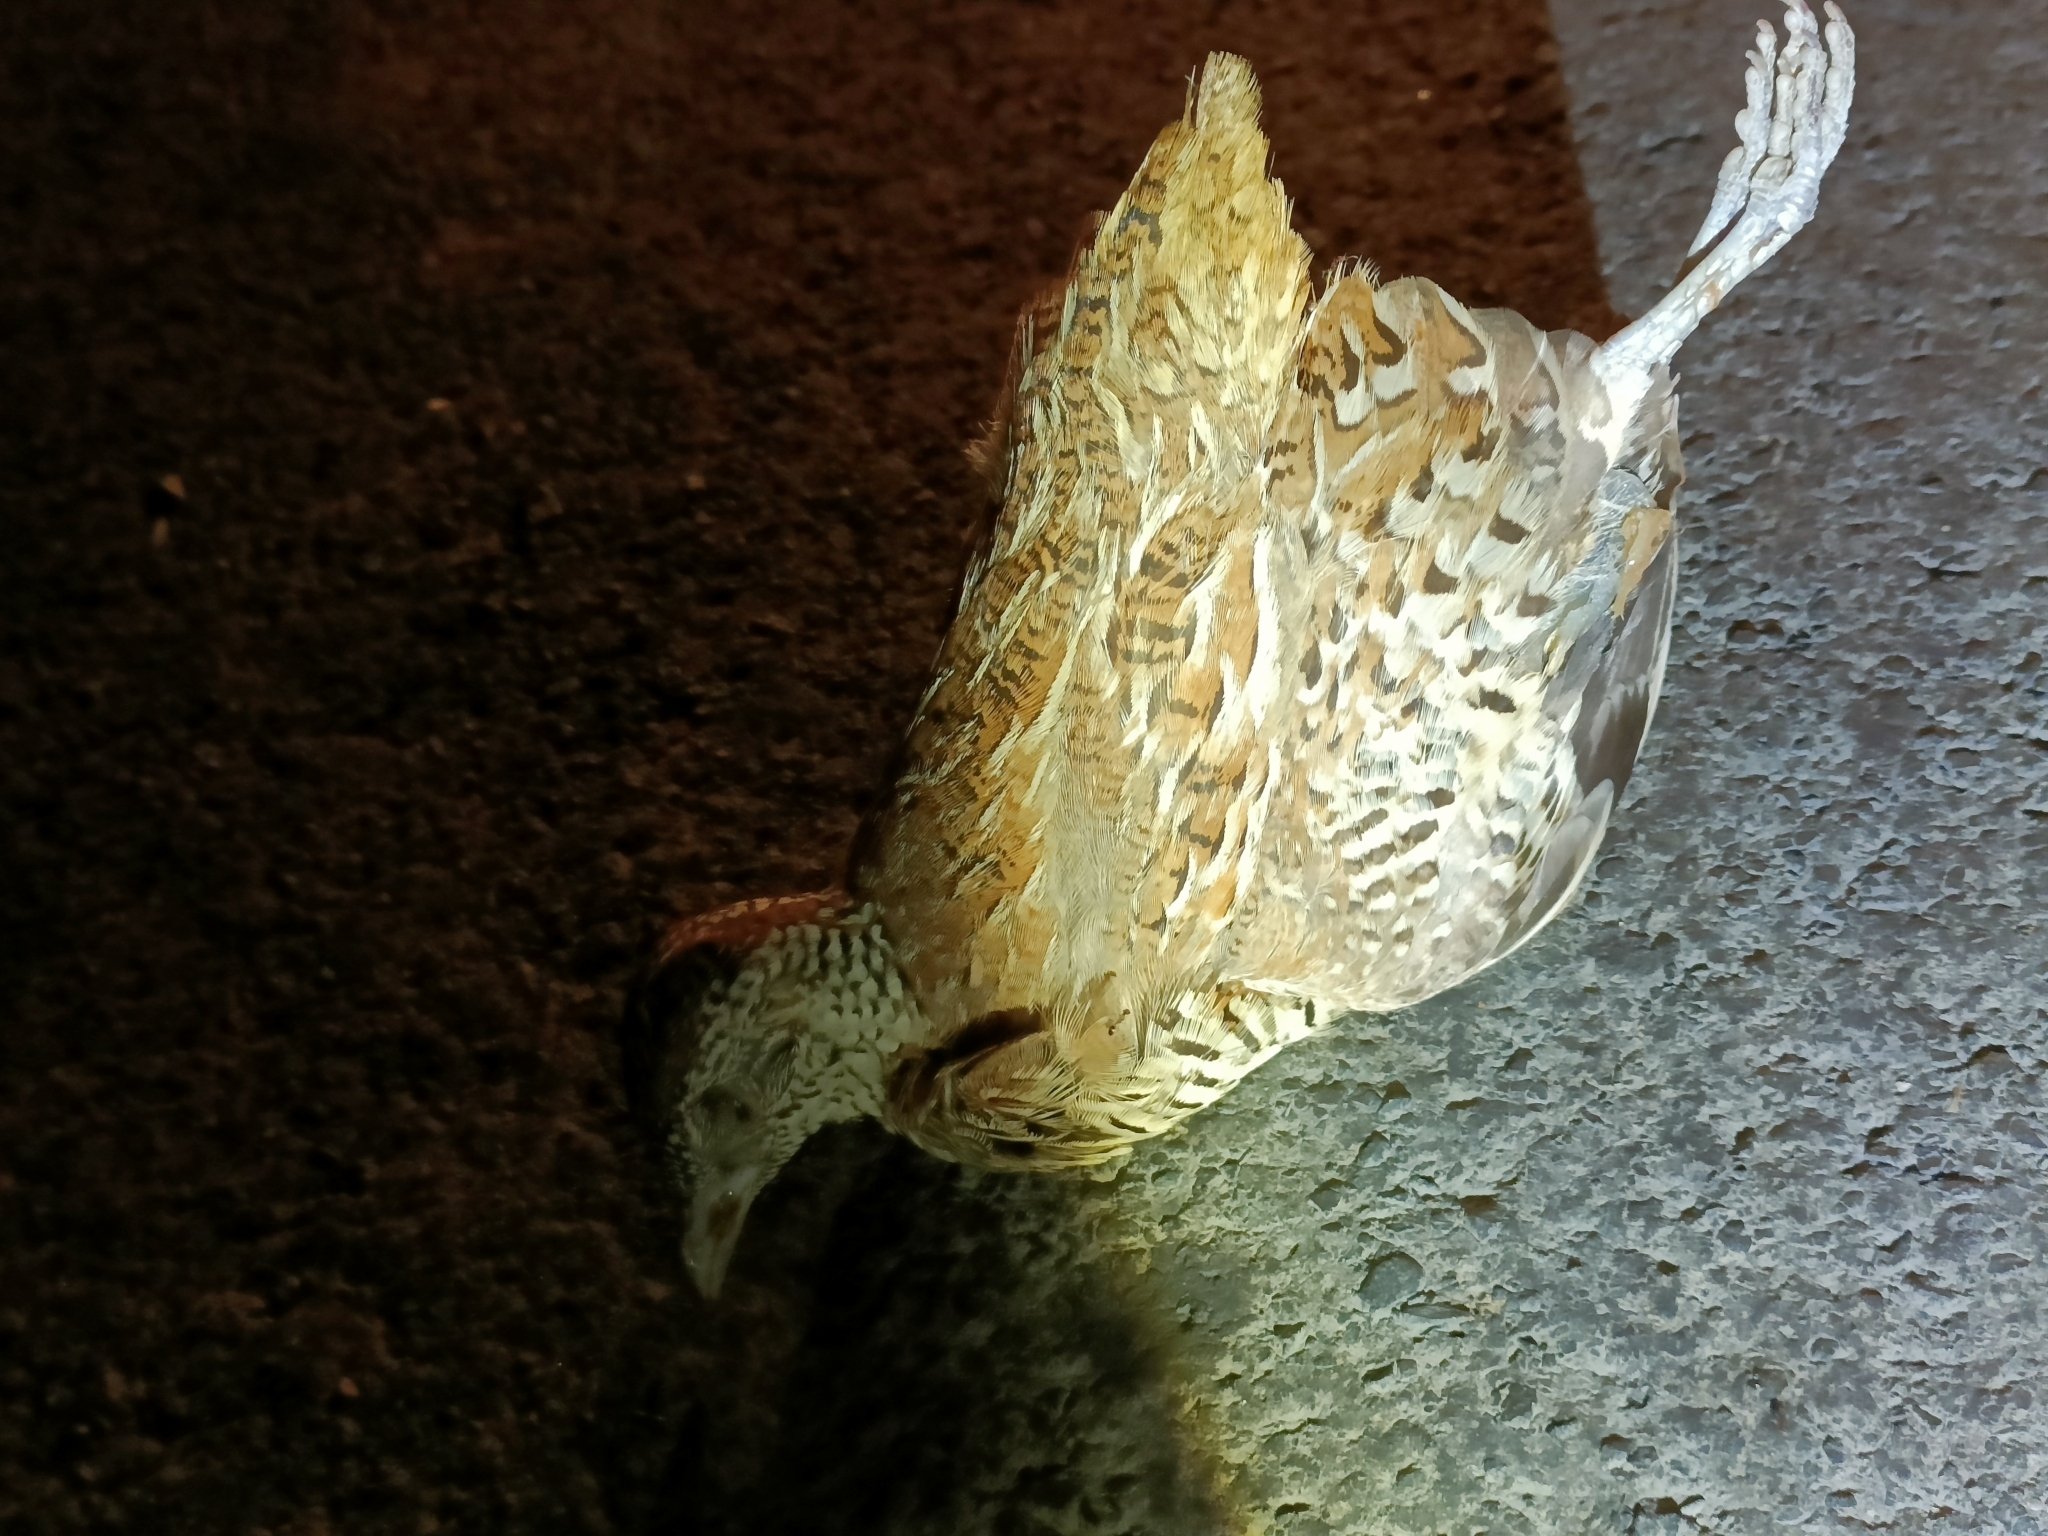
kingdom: Animalia
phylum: Chordata
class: Aves
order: Charadriiformes
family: Turnicidae
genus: Turnix
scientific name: Turnix suscitator
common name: Barred buttonquail
